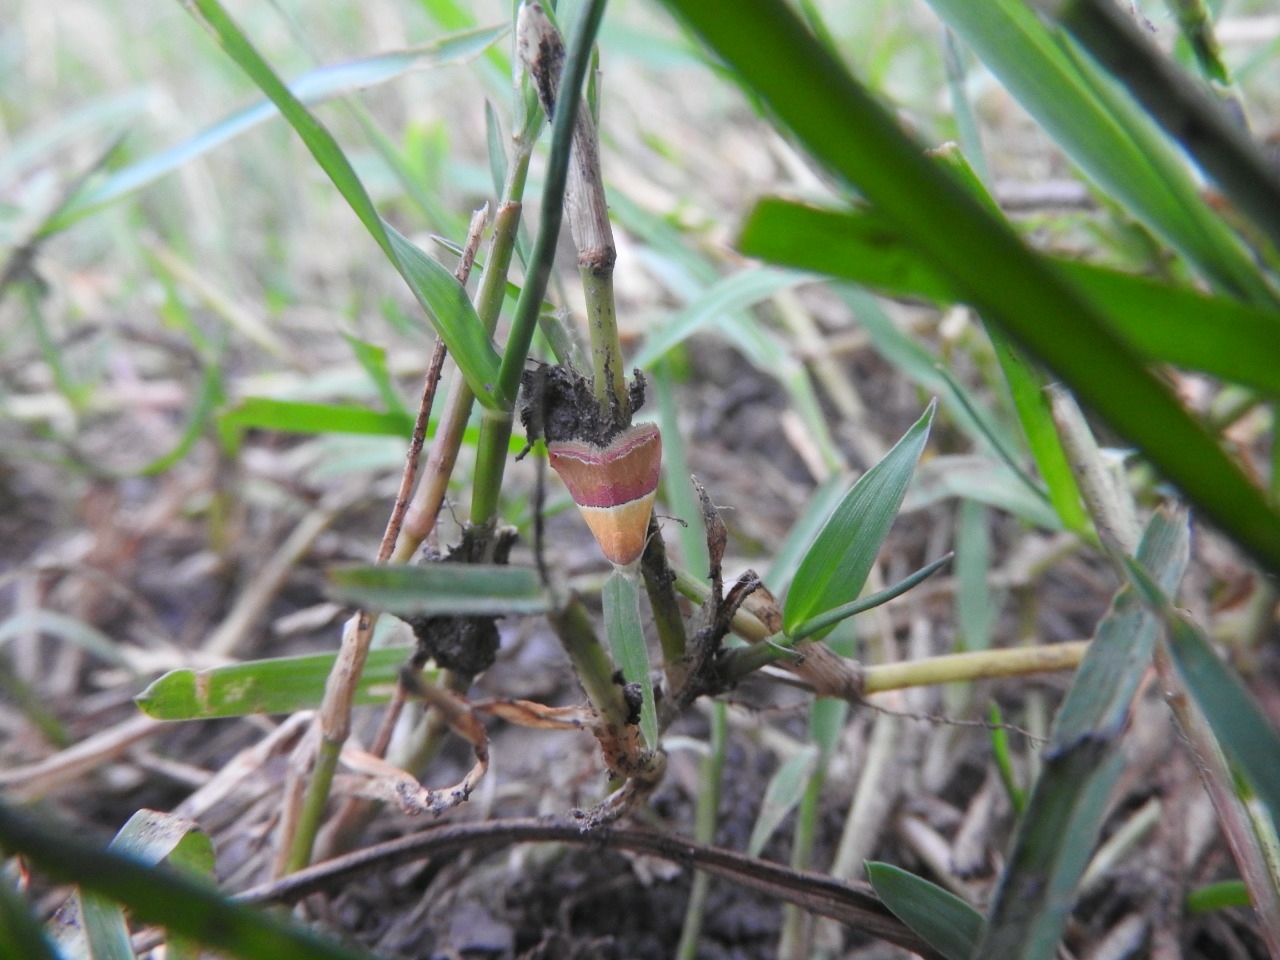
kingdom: Animalia
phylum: Arthropoda
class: Insecta
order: Lepidoptera
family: Noctuidae
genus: Eublemma
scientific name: Eublemma accedens
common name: Moth
